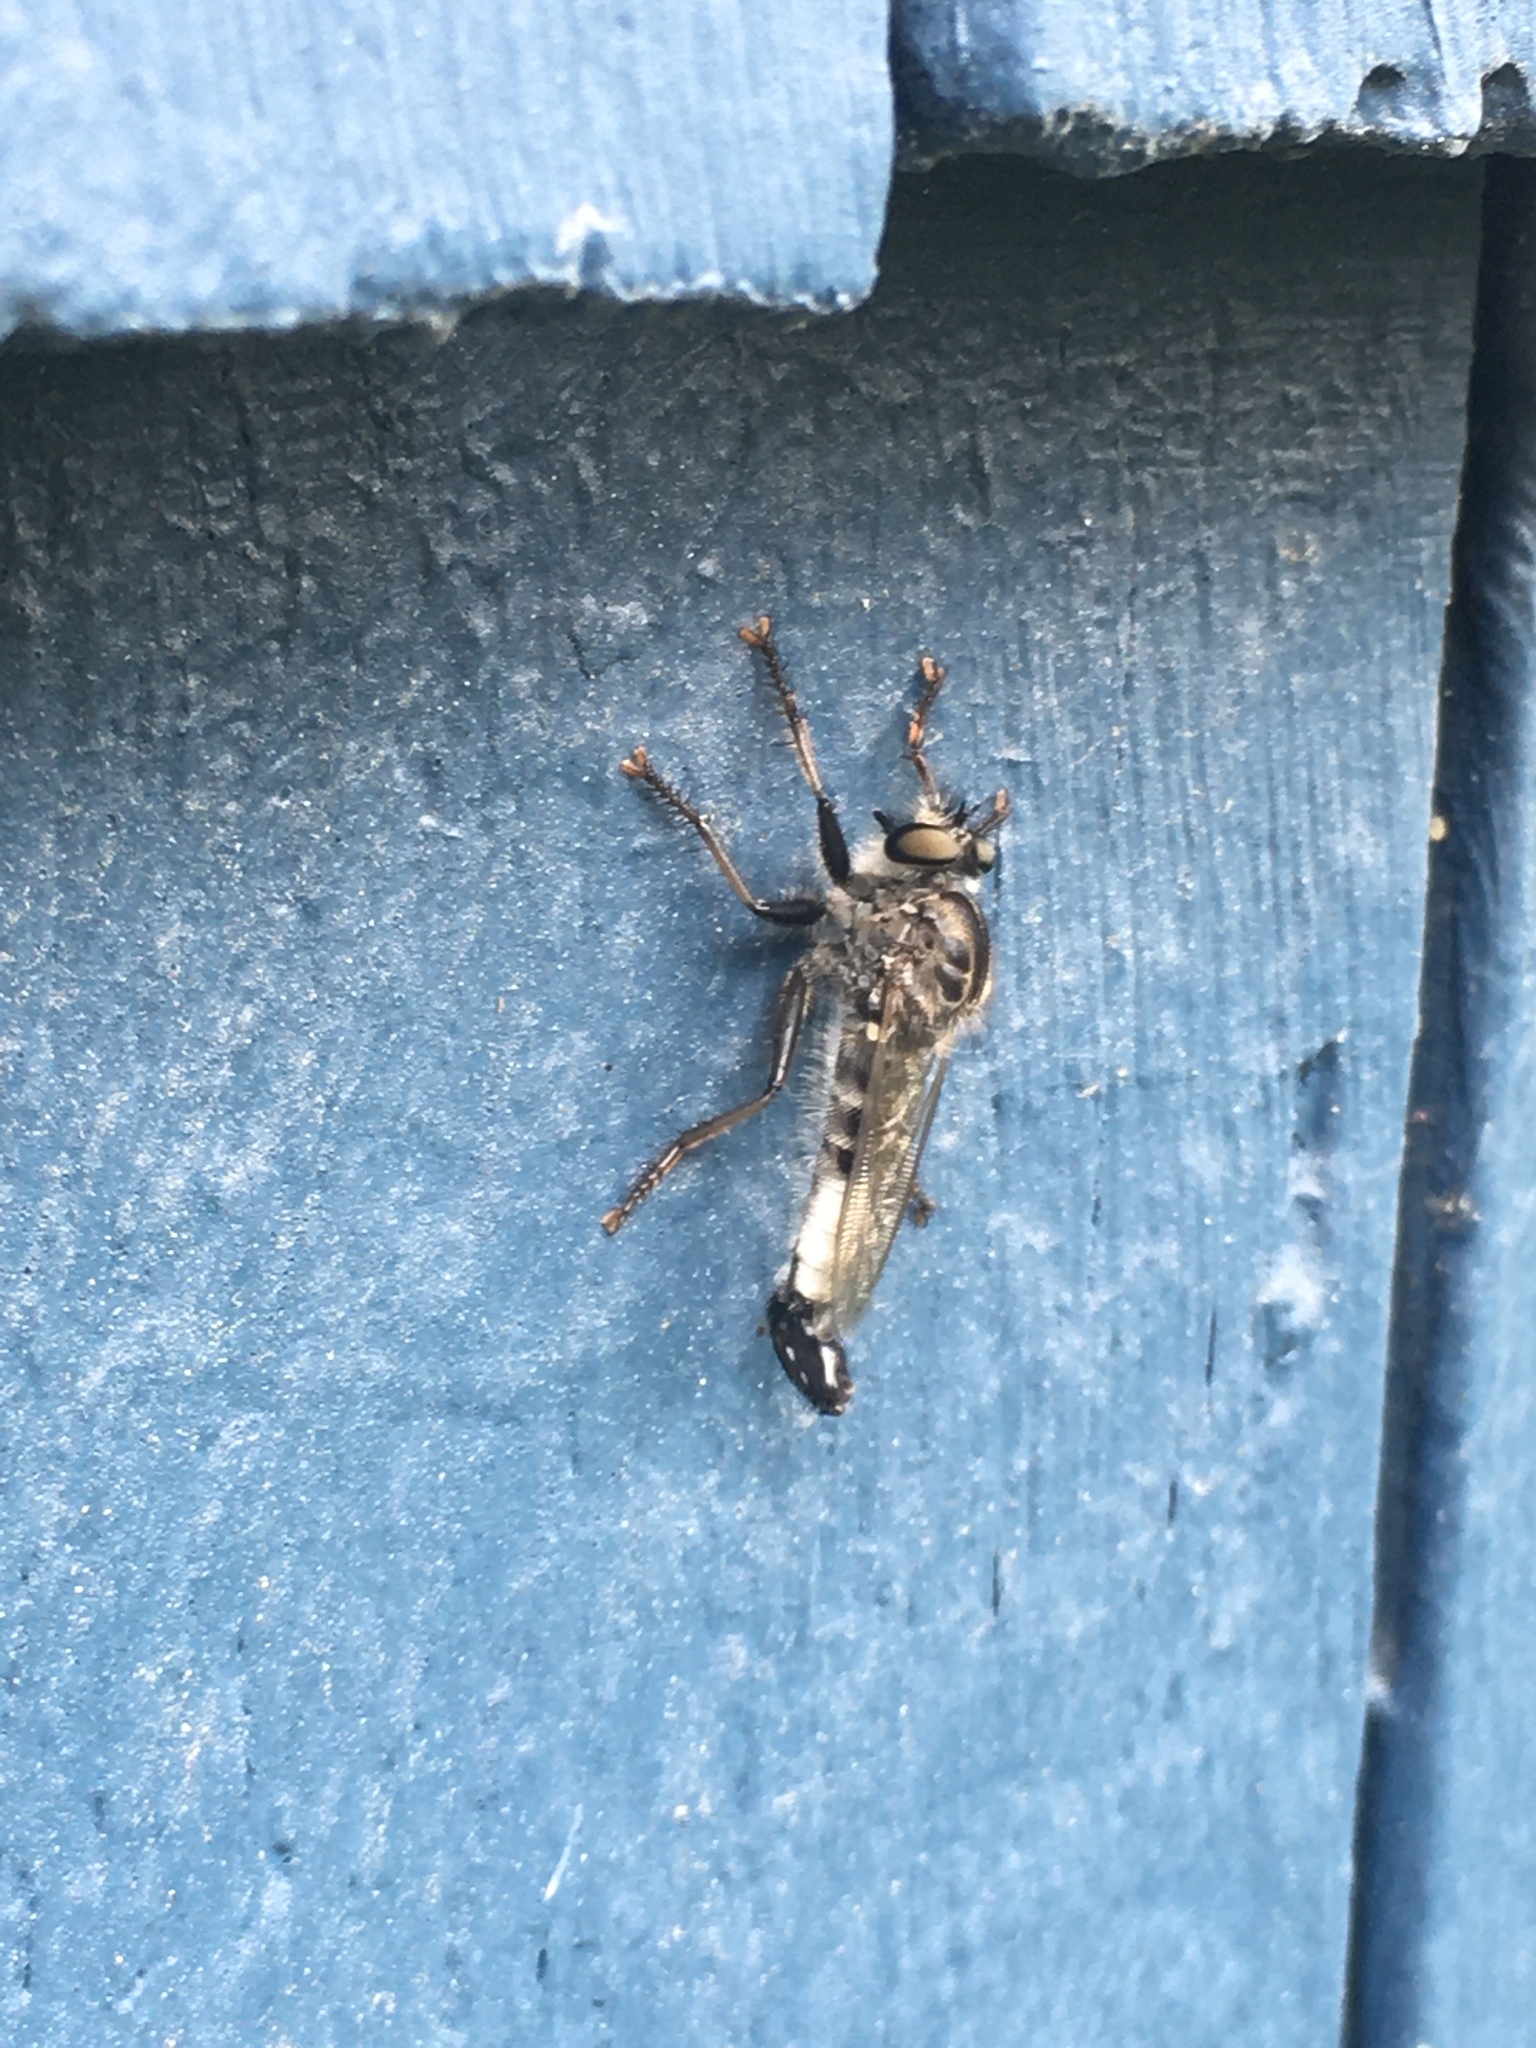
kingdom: Animalia
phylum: Arthropoda
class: Insecta
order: Diptera
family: Asilidae
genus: Efferia
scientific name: Efferia aestuans
